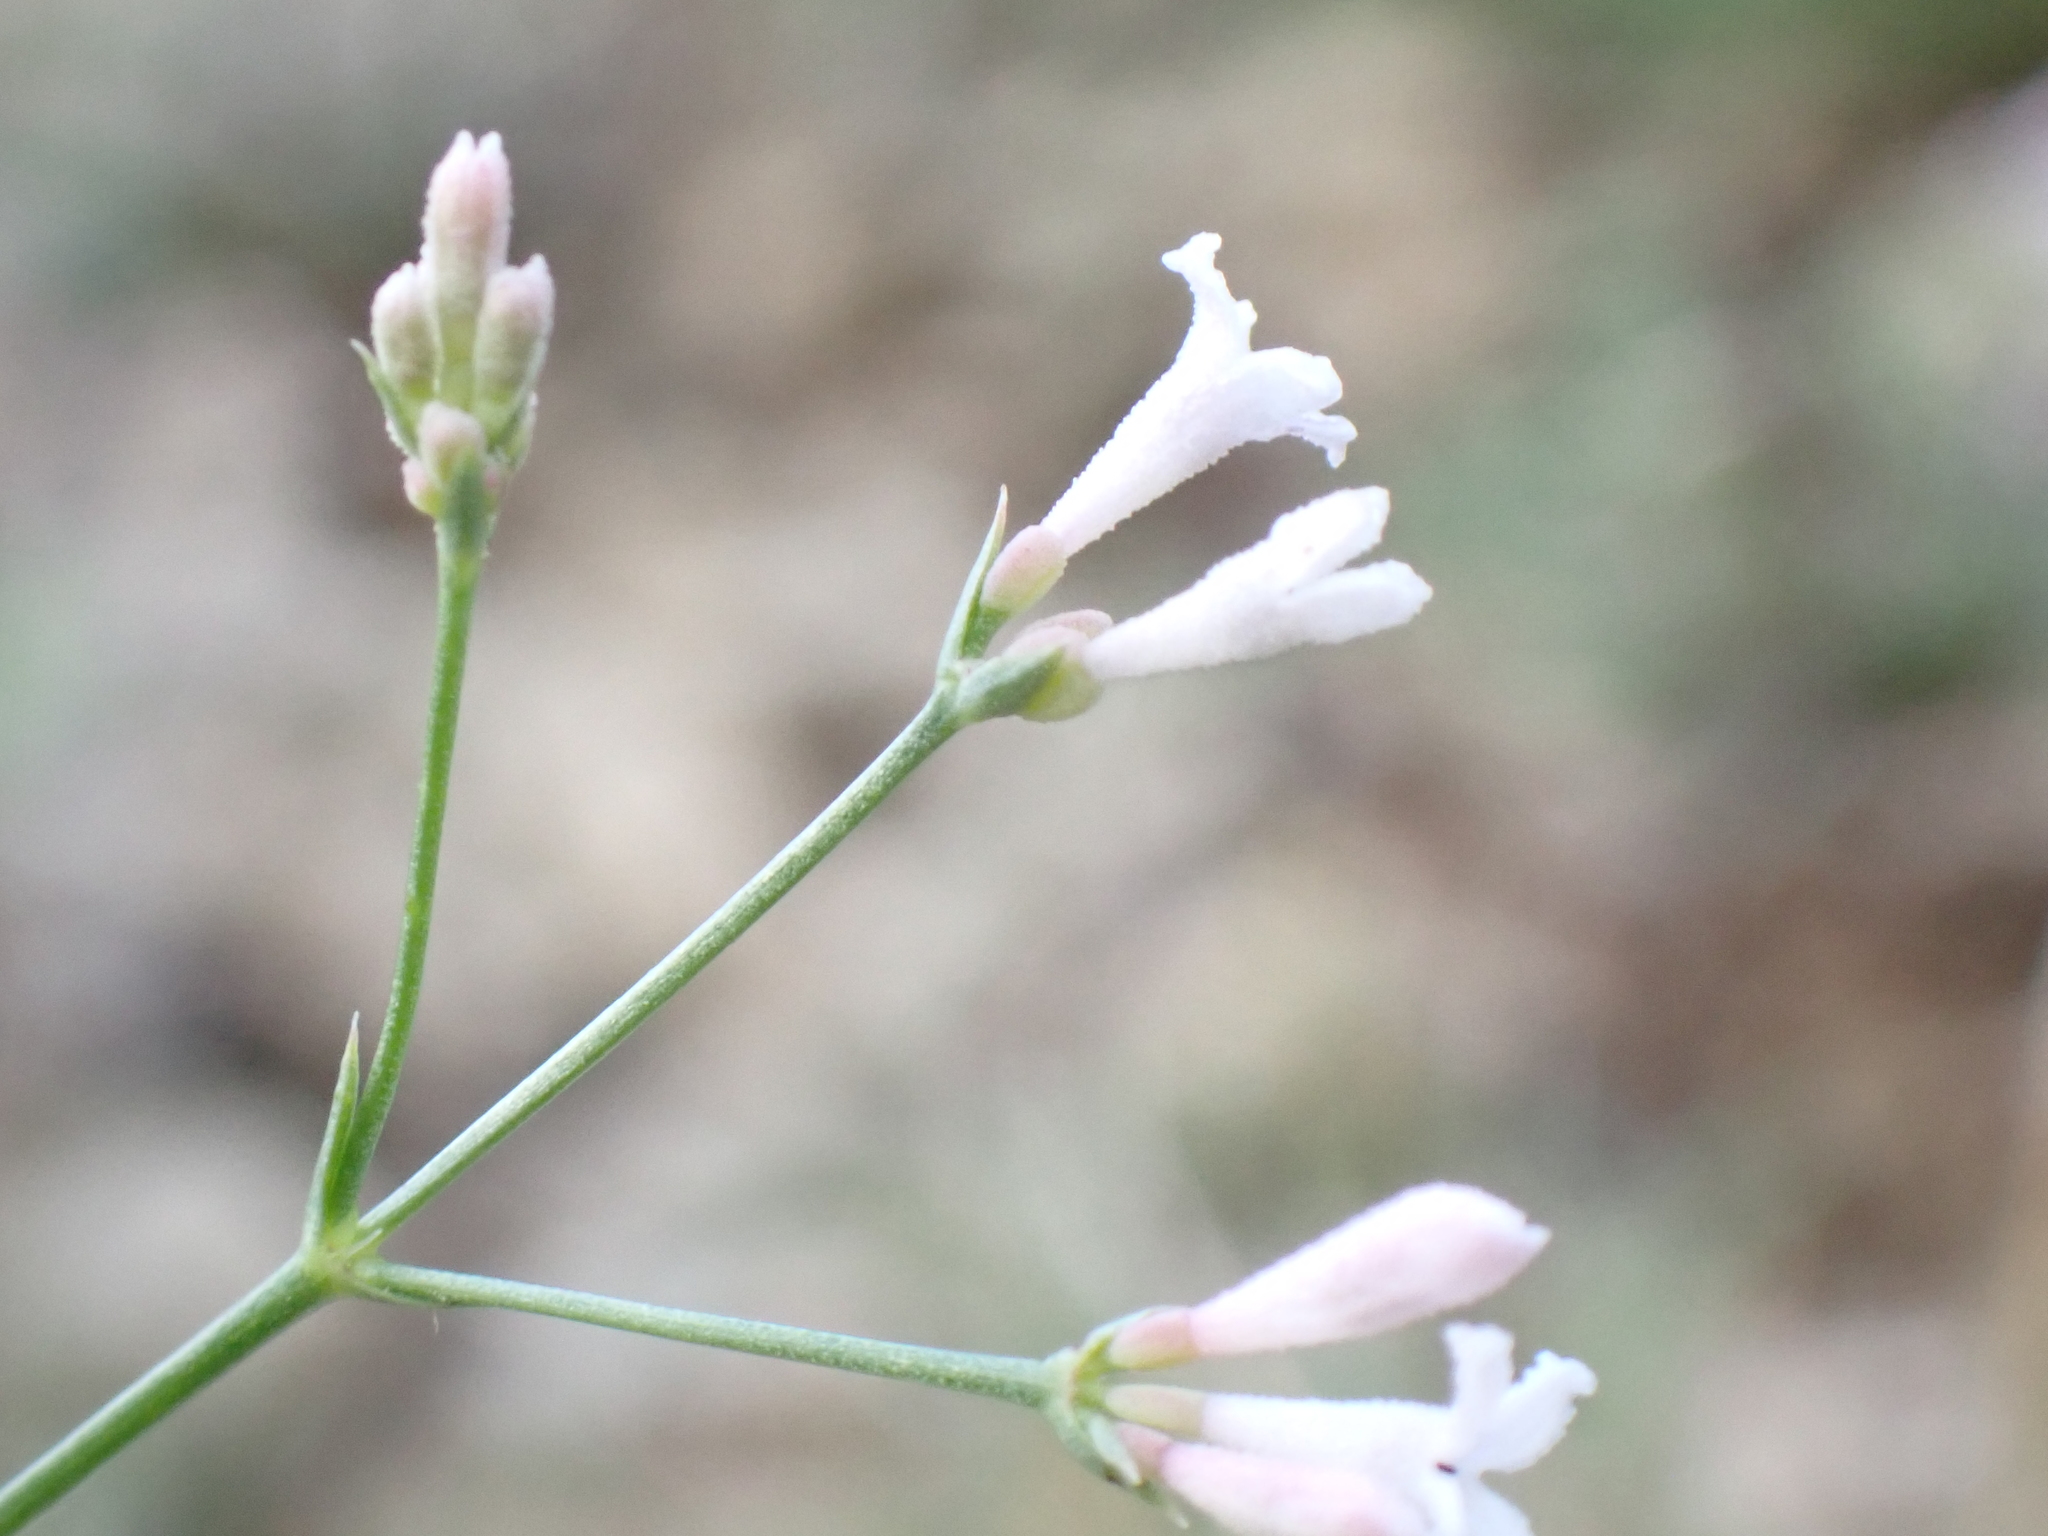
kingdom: Plantae
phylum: Tracheophyta
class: Magnoliopsida
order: Gentianales
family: Rubiaceae
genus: Cynanchica
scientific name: Cynanchica pyrenaica
